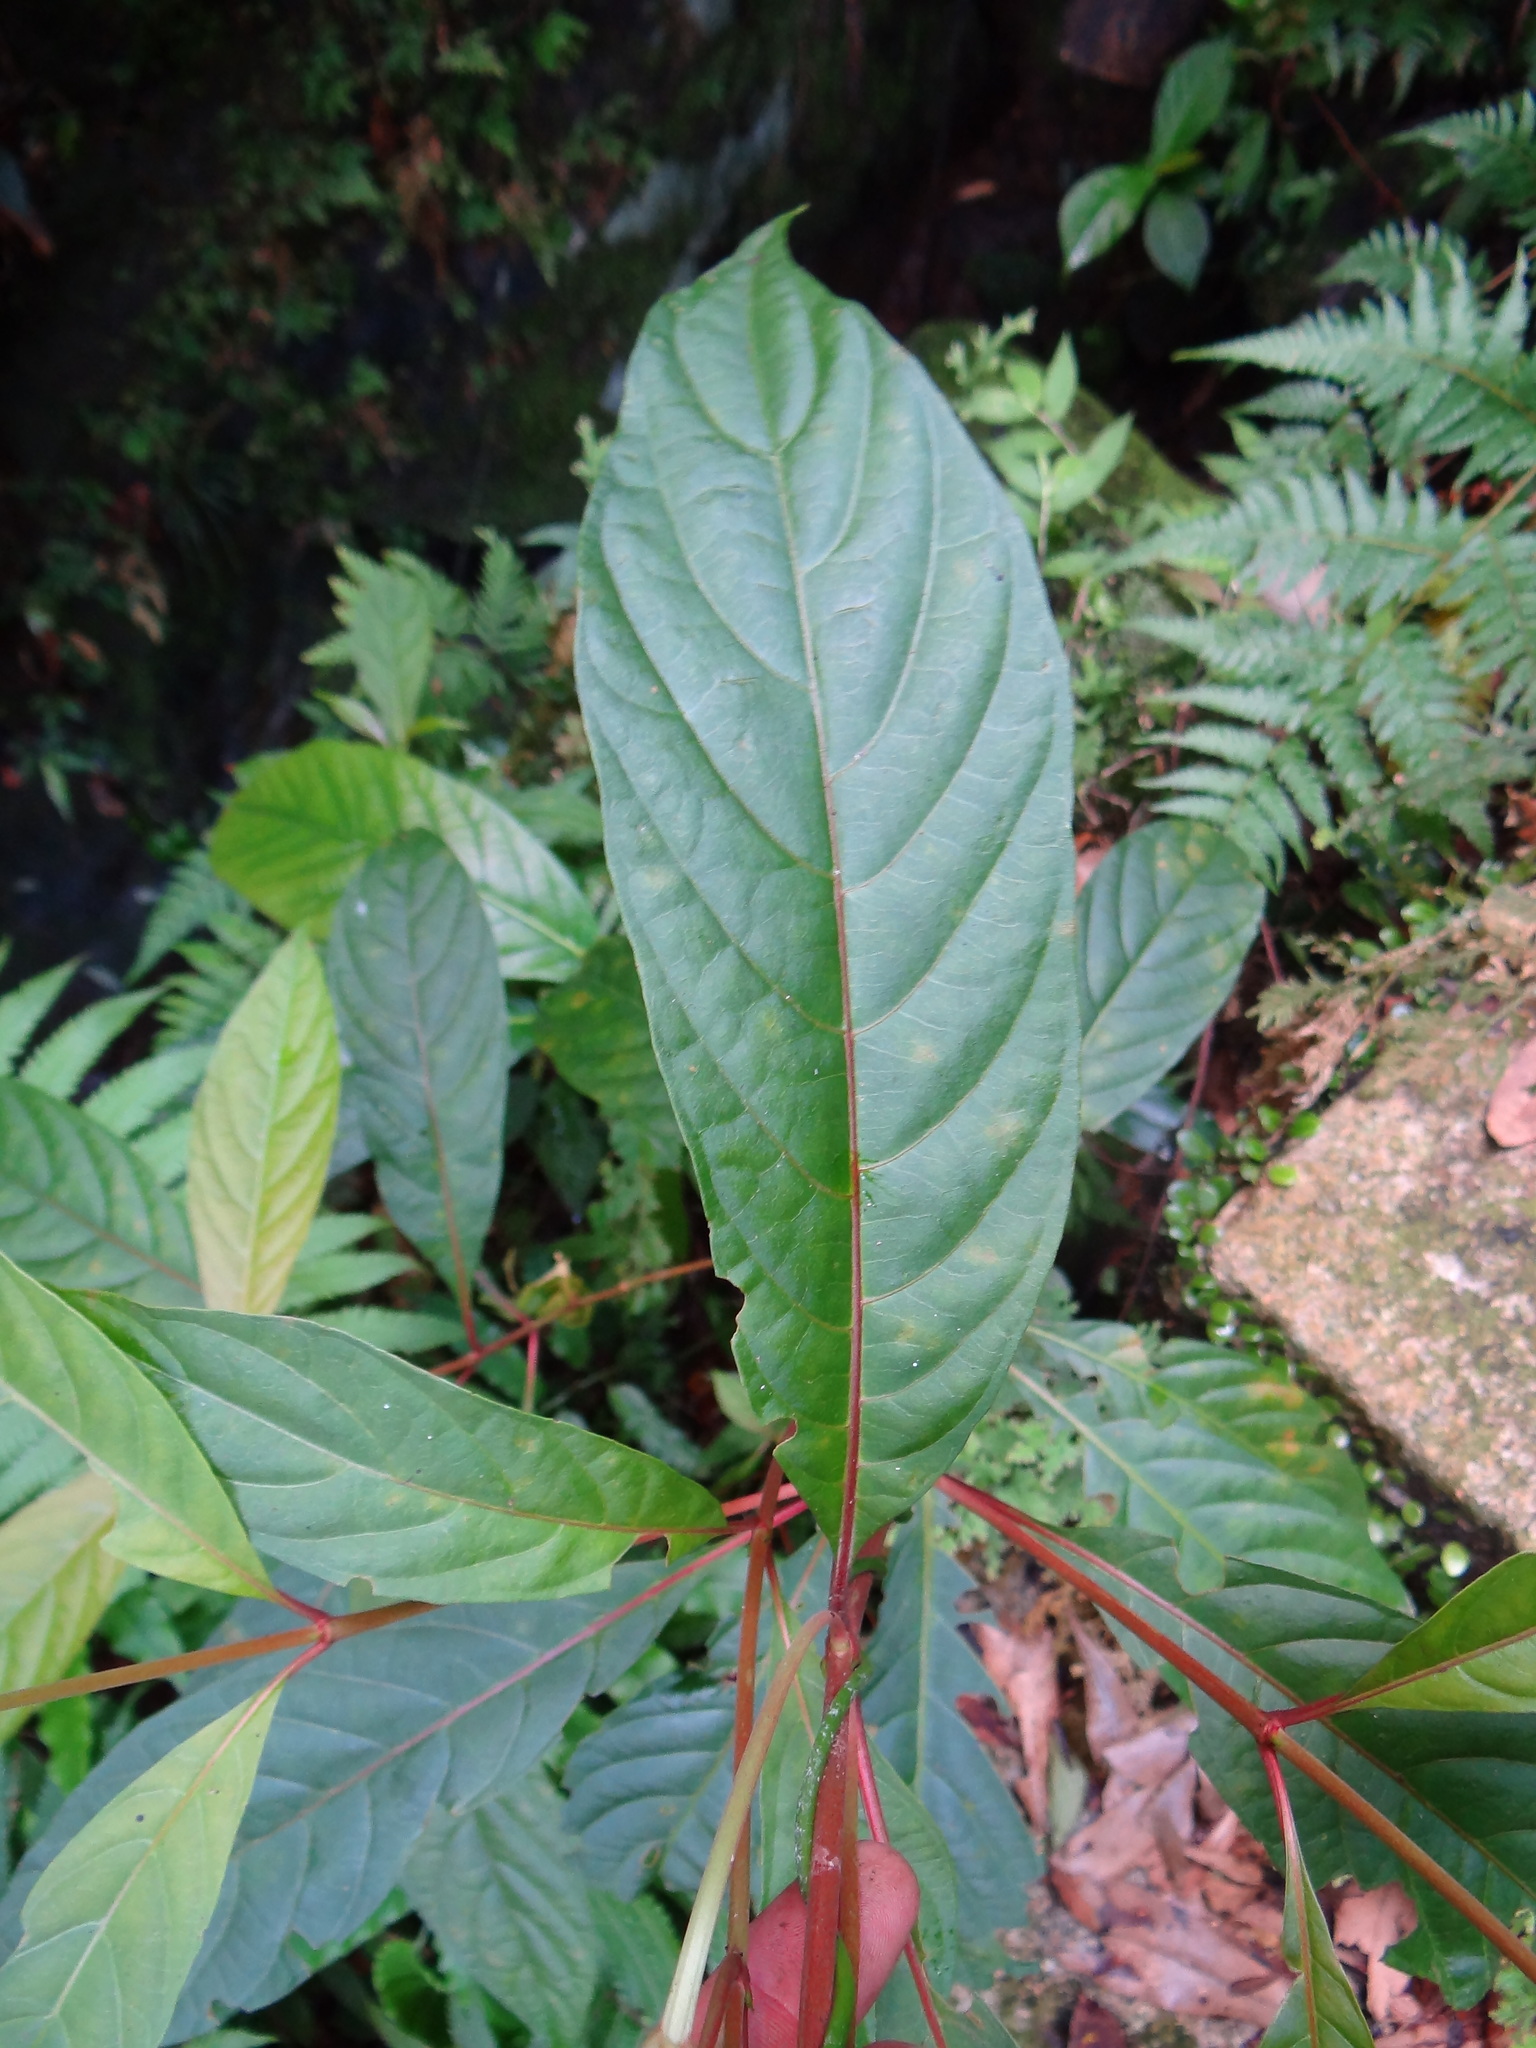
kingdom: Plantae
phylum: Tracheophyta
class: Magnoliopsida
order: Gentianales
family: Rubiaceae
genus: Wendlandia
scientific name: Wendlandia formosana
